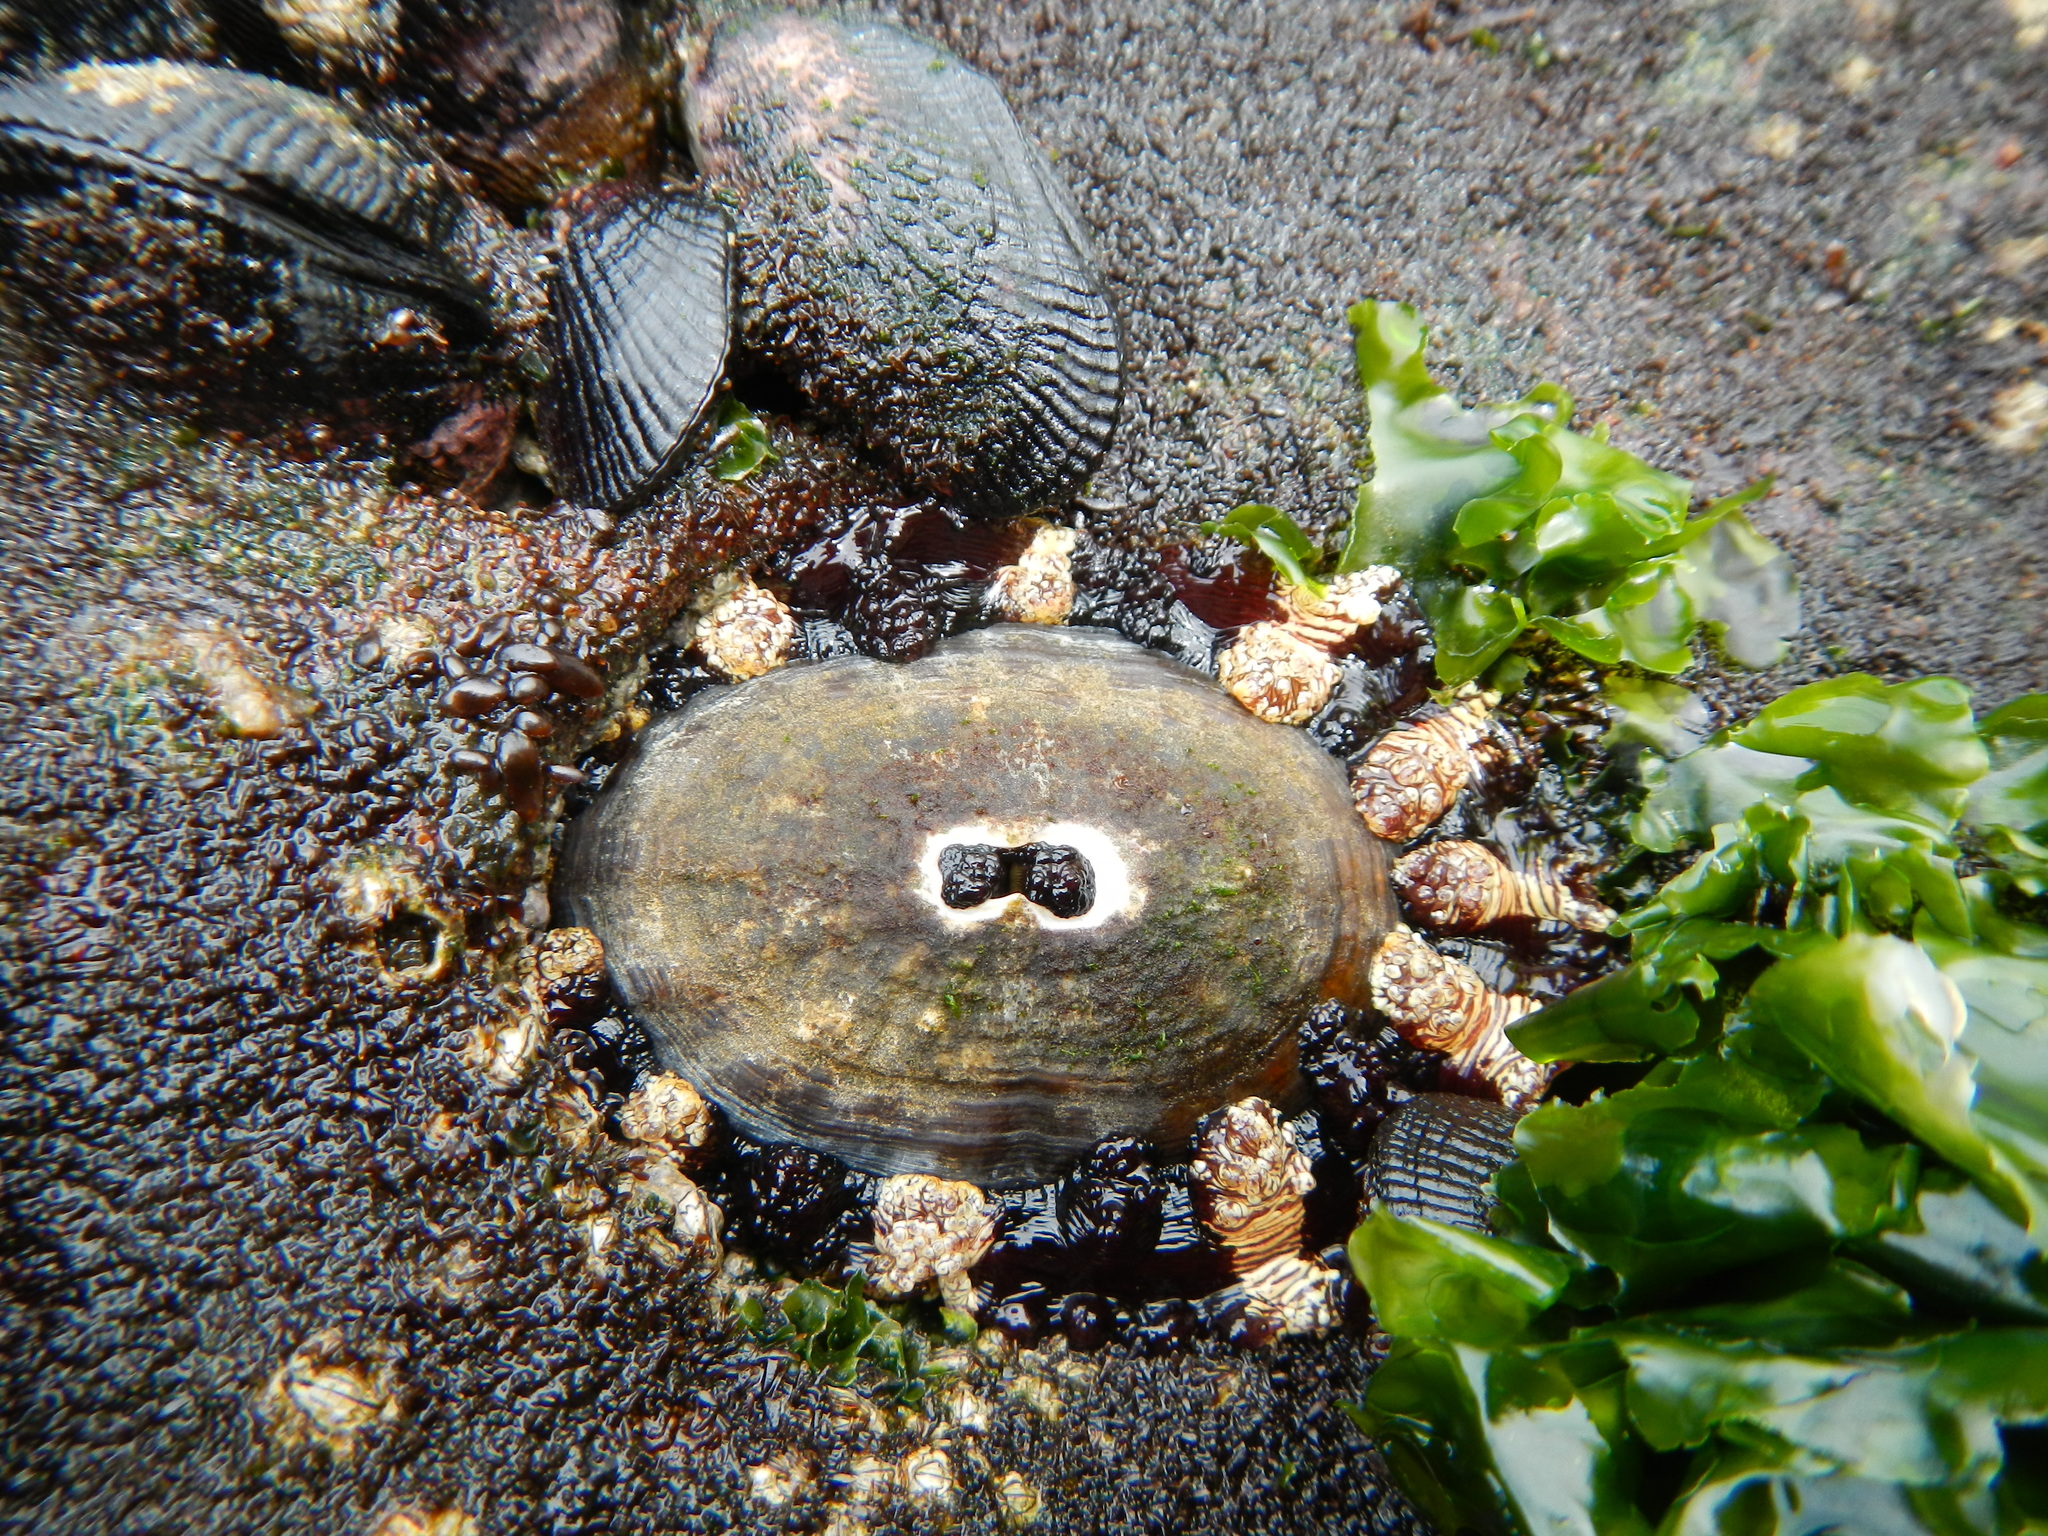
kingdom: Animalia
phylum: Mollusca
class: Gastropoda
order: Lepetellida
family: Fissurellidae
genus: Fissurella
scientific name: Fissurella crassa
